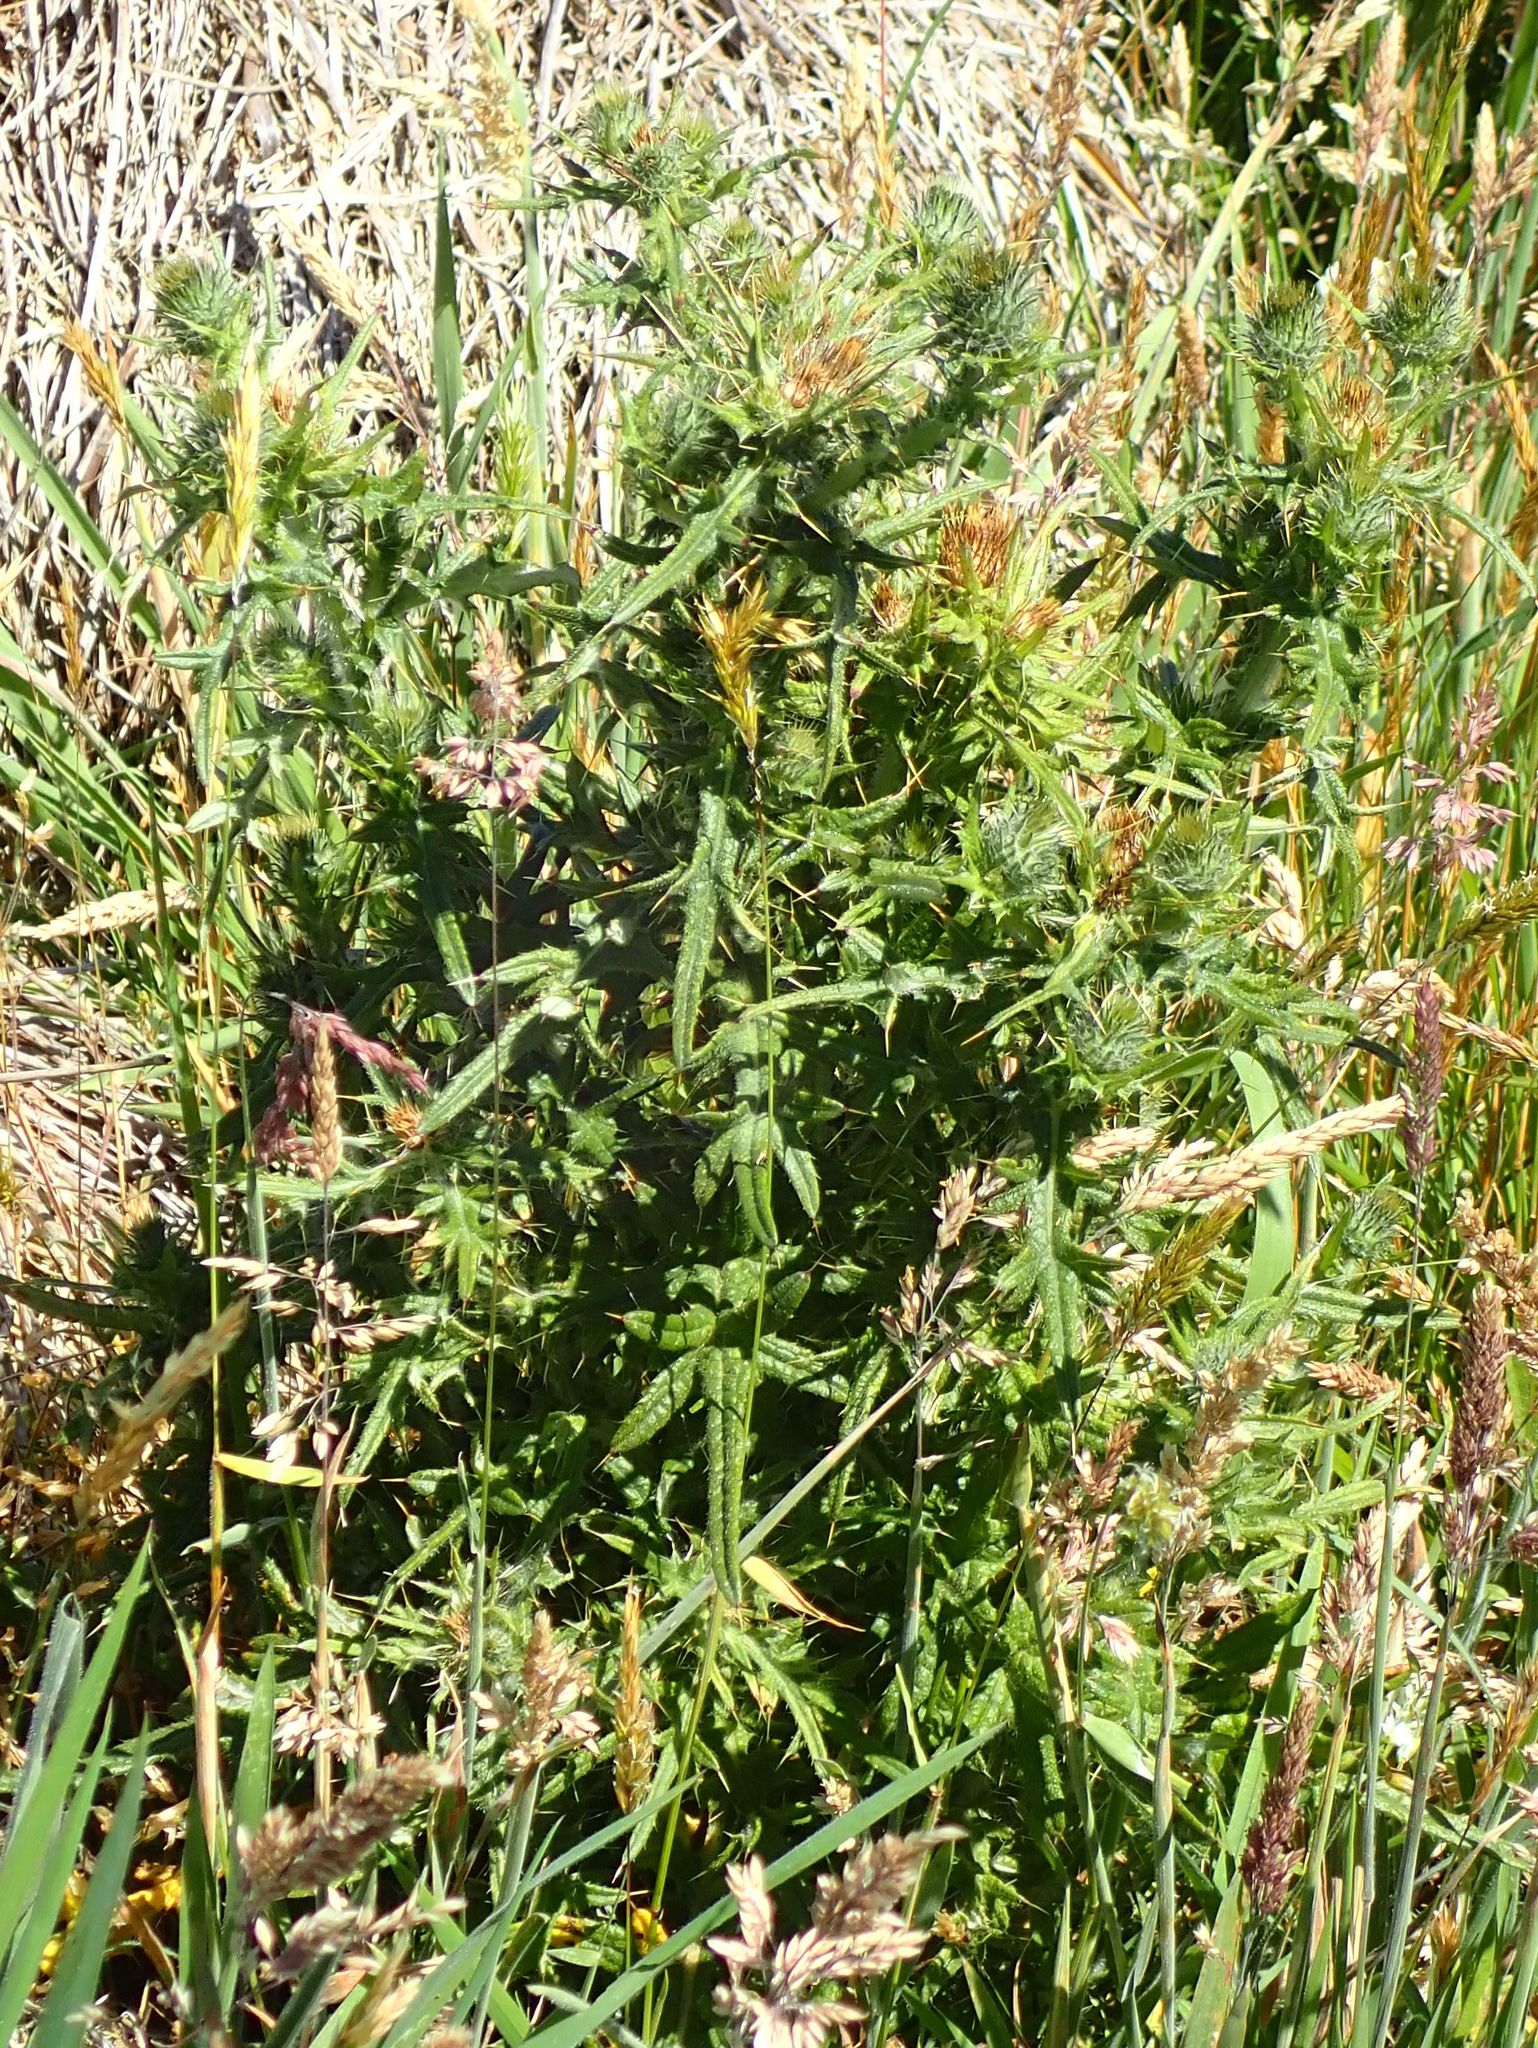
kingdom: Plantae
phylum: Tracheophyta
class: Magnoliopsida
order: Asterales
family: Asteraceae
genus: Cirsium
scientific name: Cirsium vulgare
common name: Bull thistle
